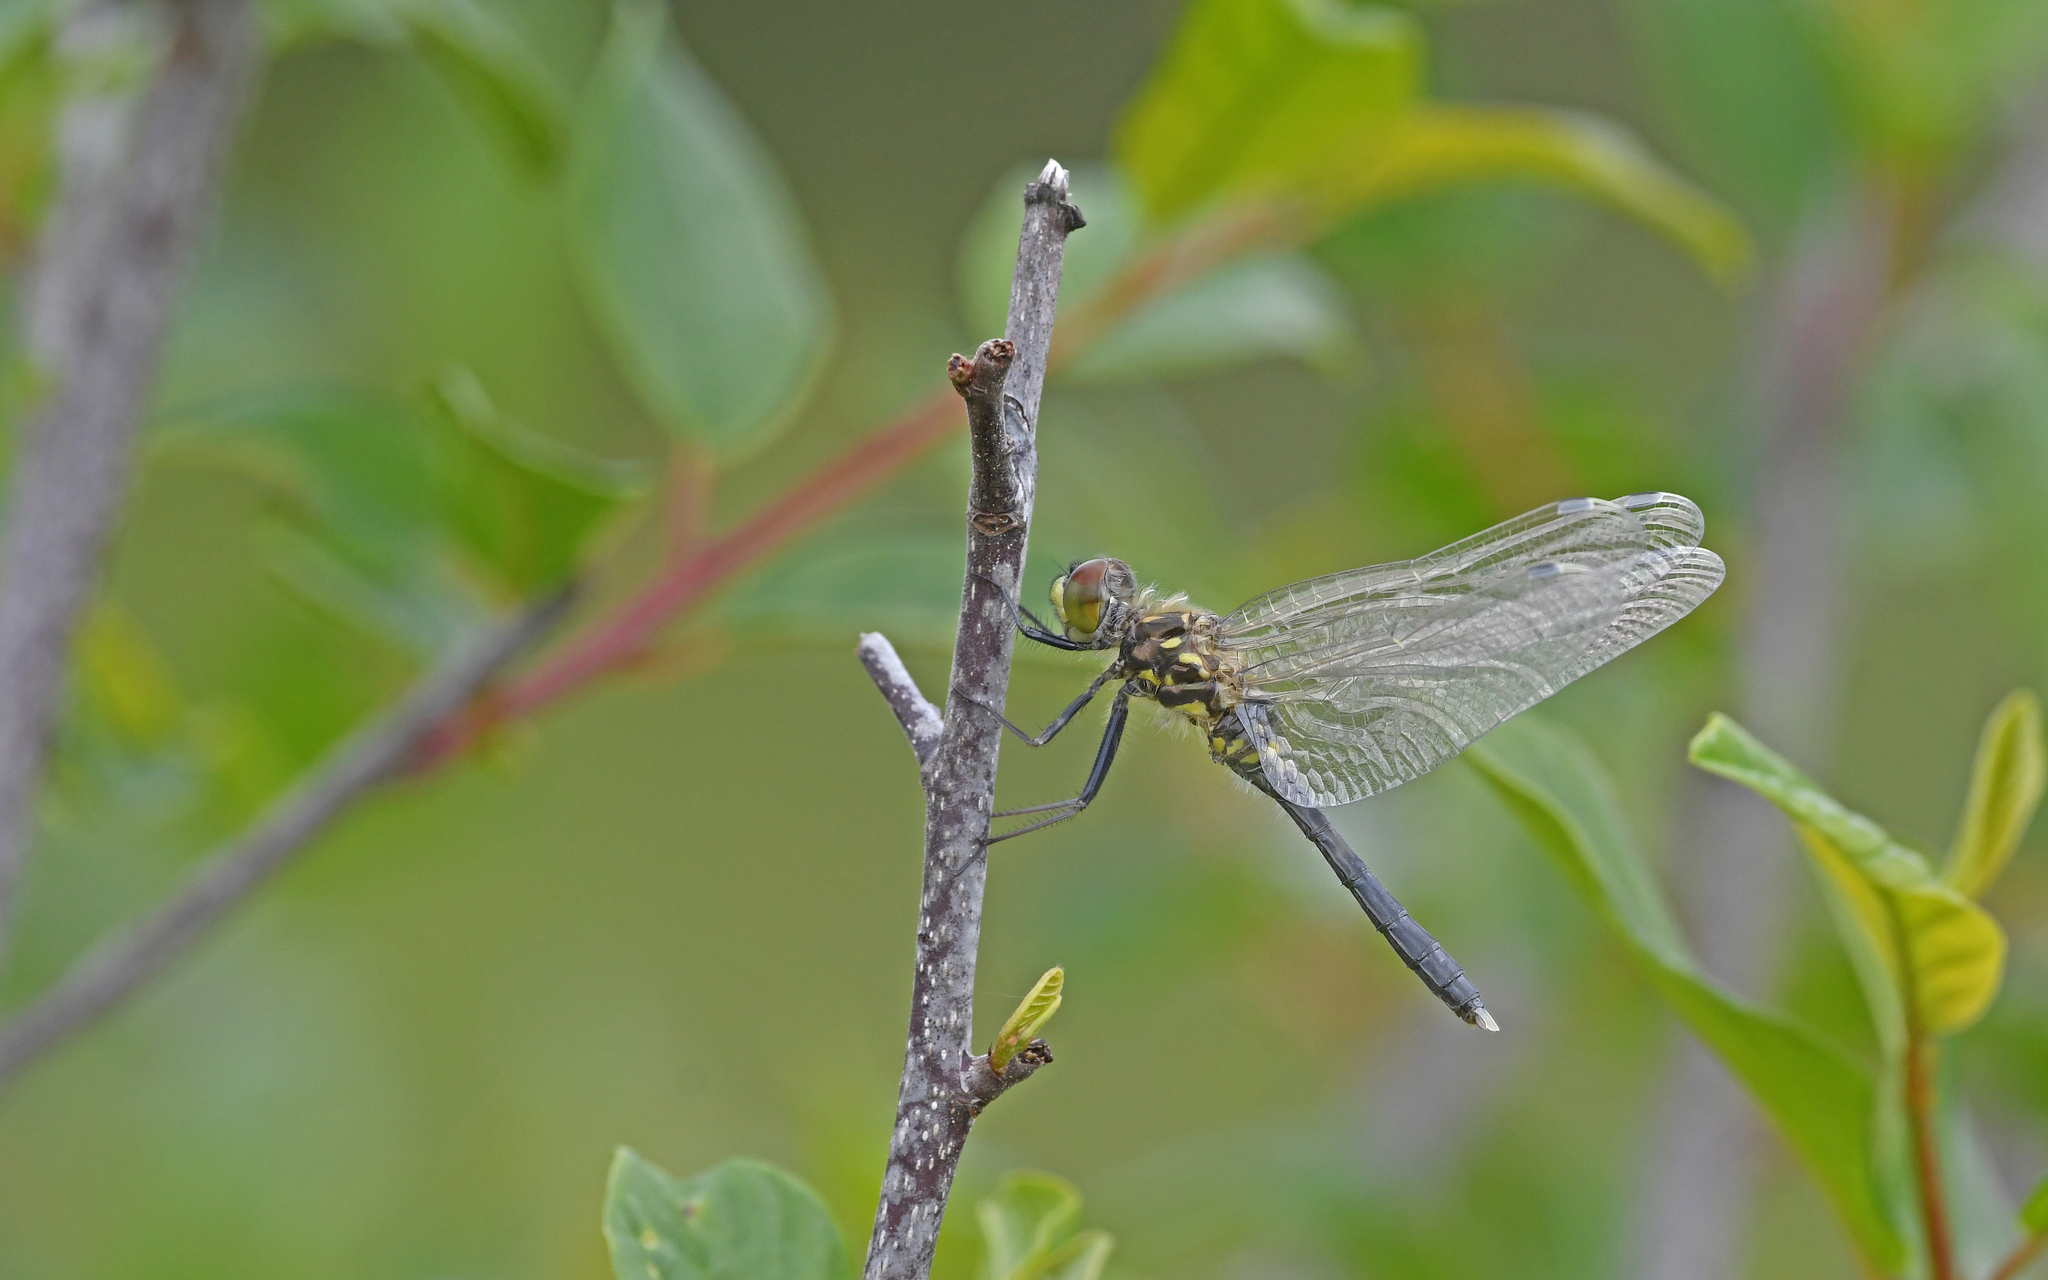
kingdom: Animalia
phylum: Arthropoda
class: Insecta
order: Odonata
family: Libellulidae
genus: Leucorrhinia
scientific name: Leucorrhinia albifrons
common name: Dark whiteface
